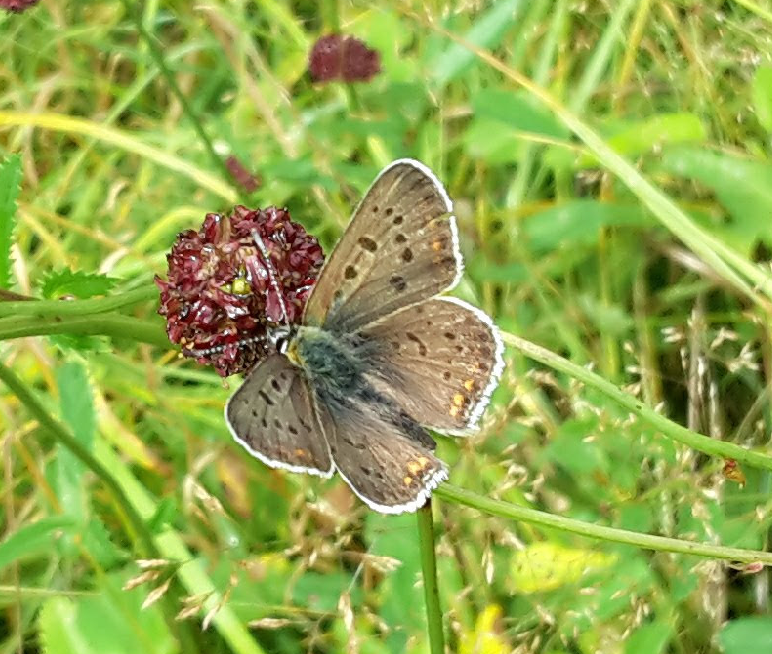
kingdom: Animalia
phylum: Arthropoda
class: Insecta
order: Lepidoptera
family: Lycaenidae
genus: Loweia
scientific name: Loweia tityrus
